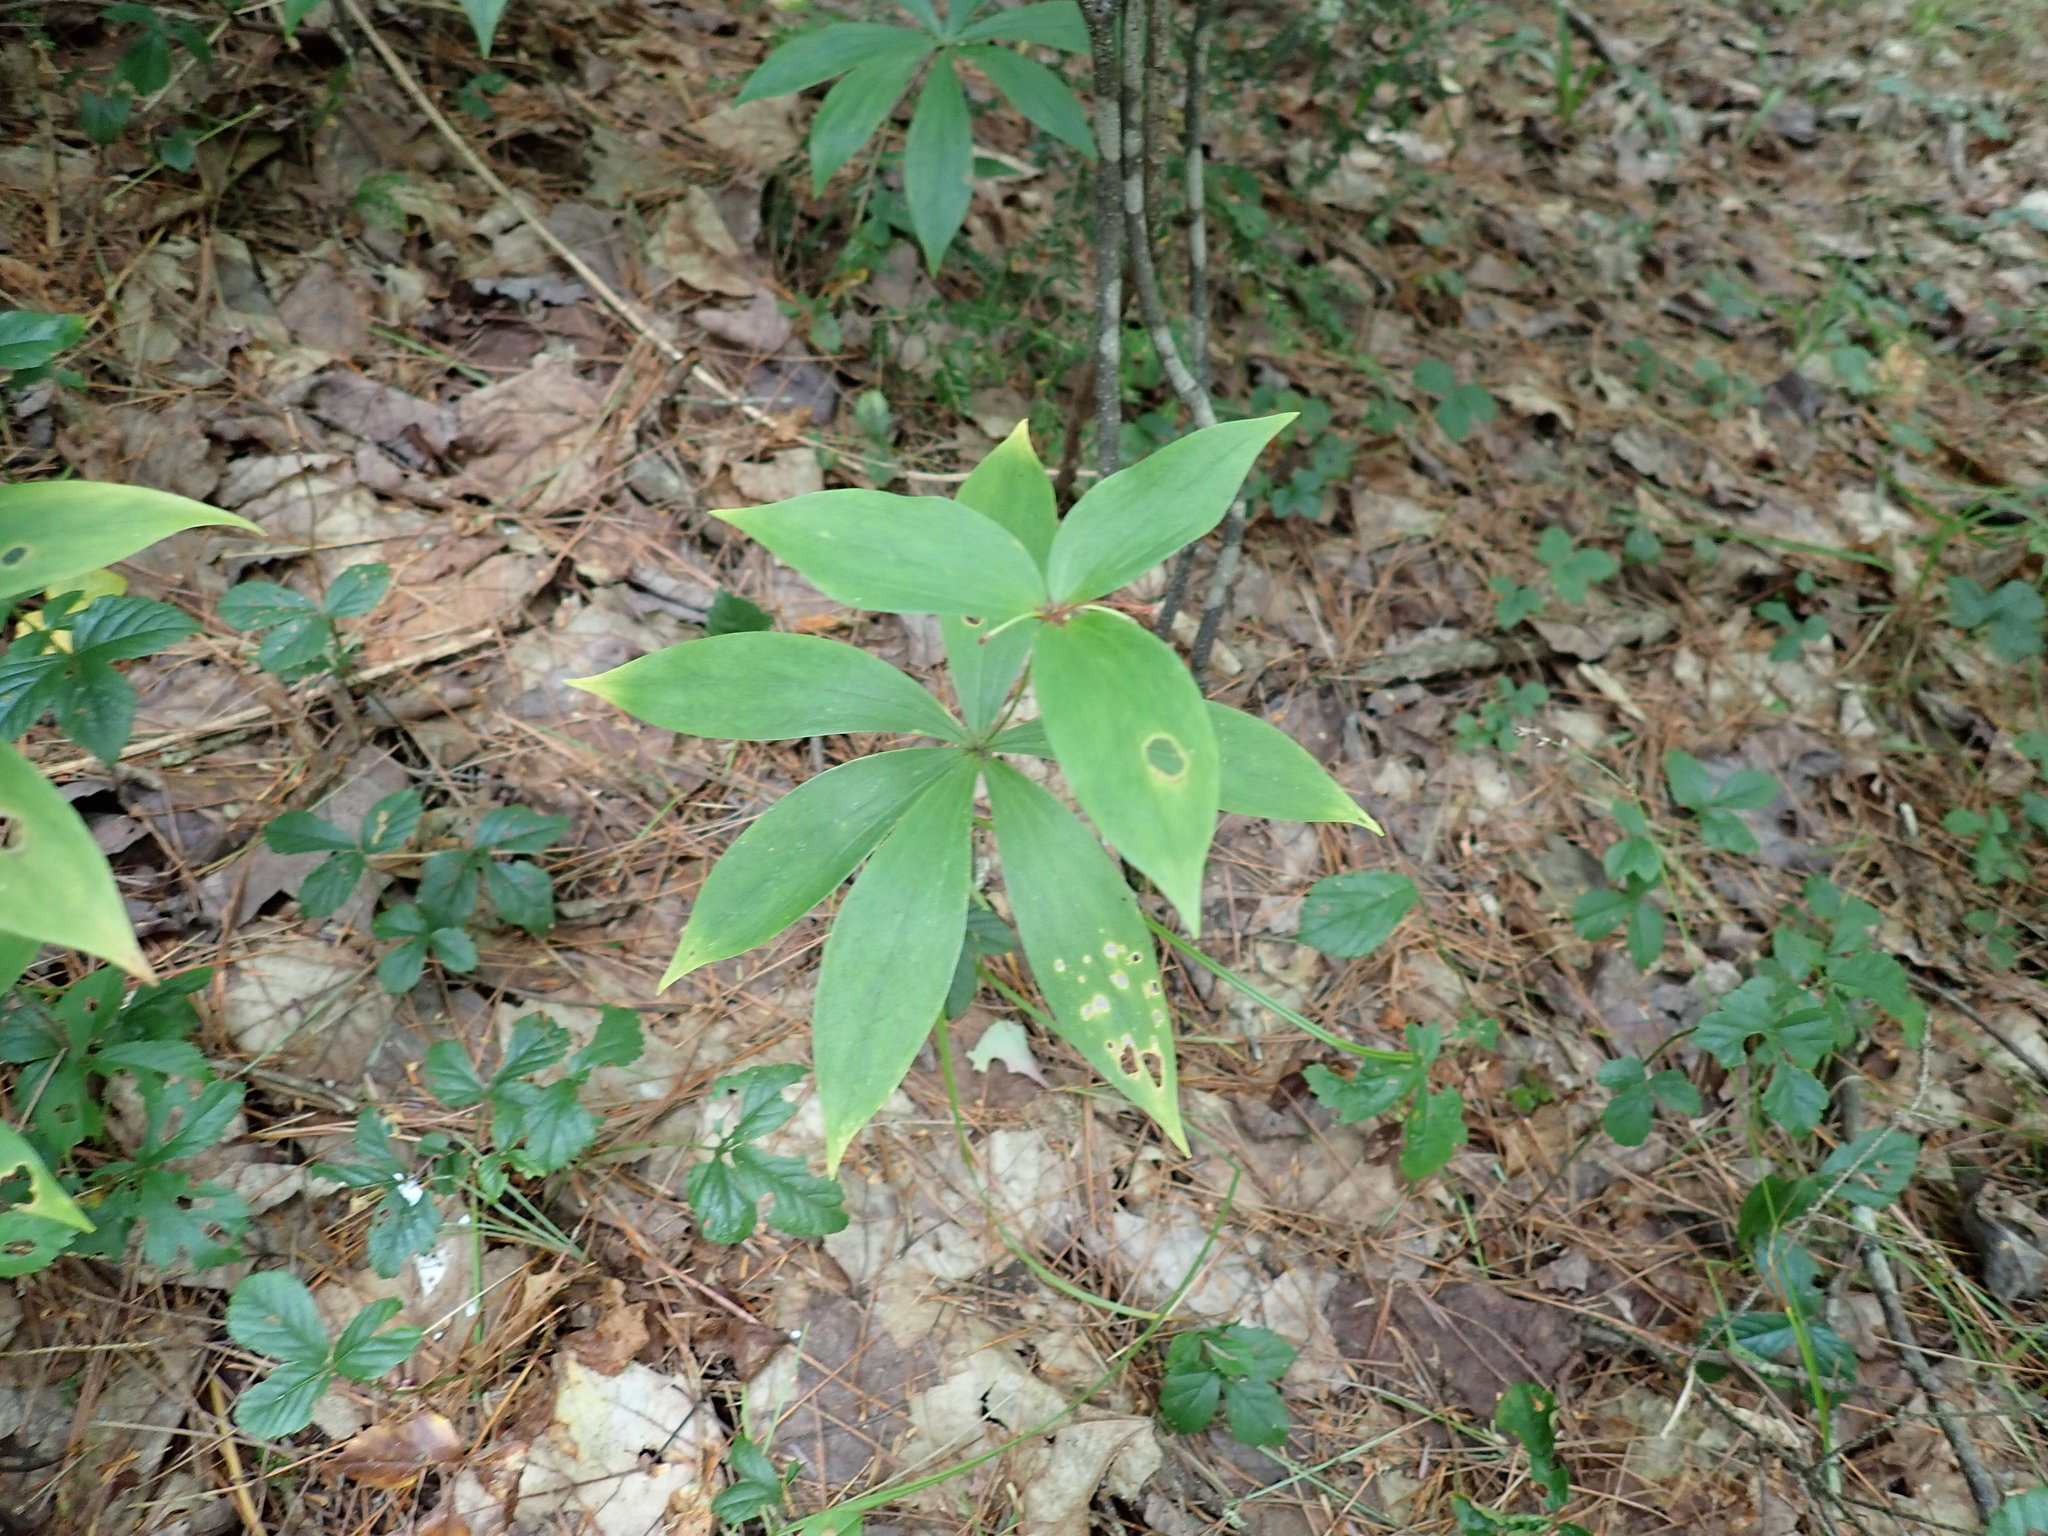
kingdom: Plantae
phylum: Tracheophyta
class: Liliopsida
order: Liliales
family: Liliaceae
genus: Medeola
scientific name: Medeola virginiana
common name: Indian cucumber-root
